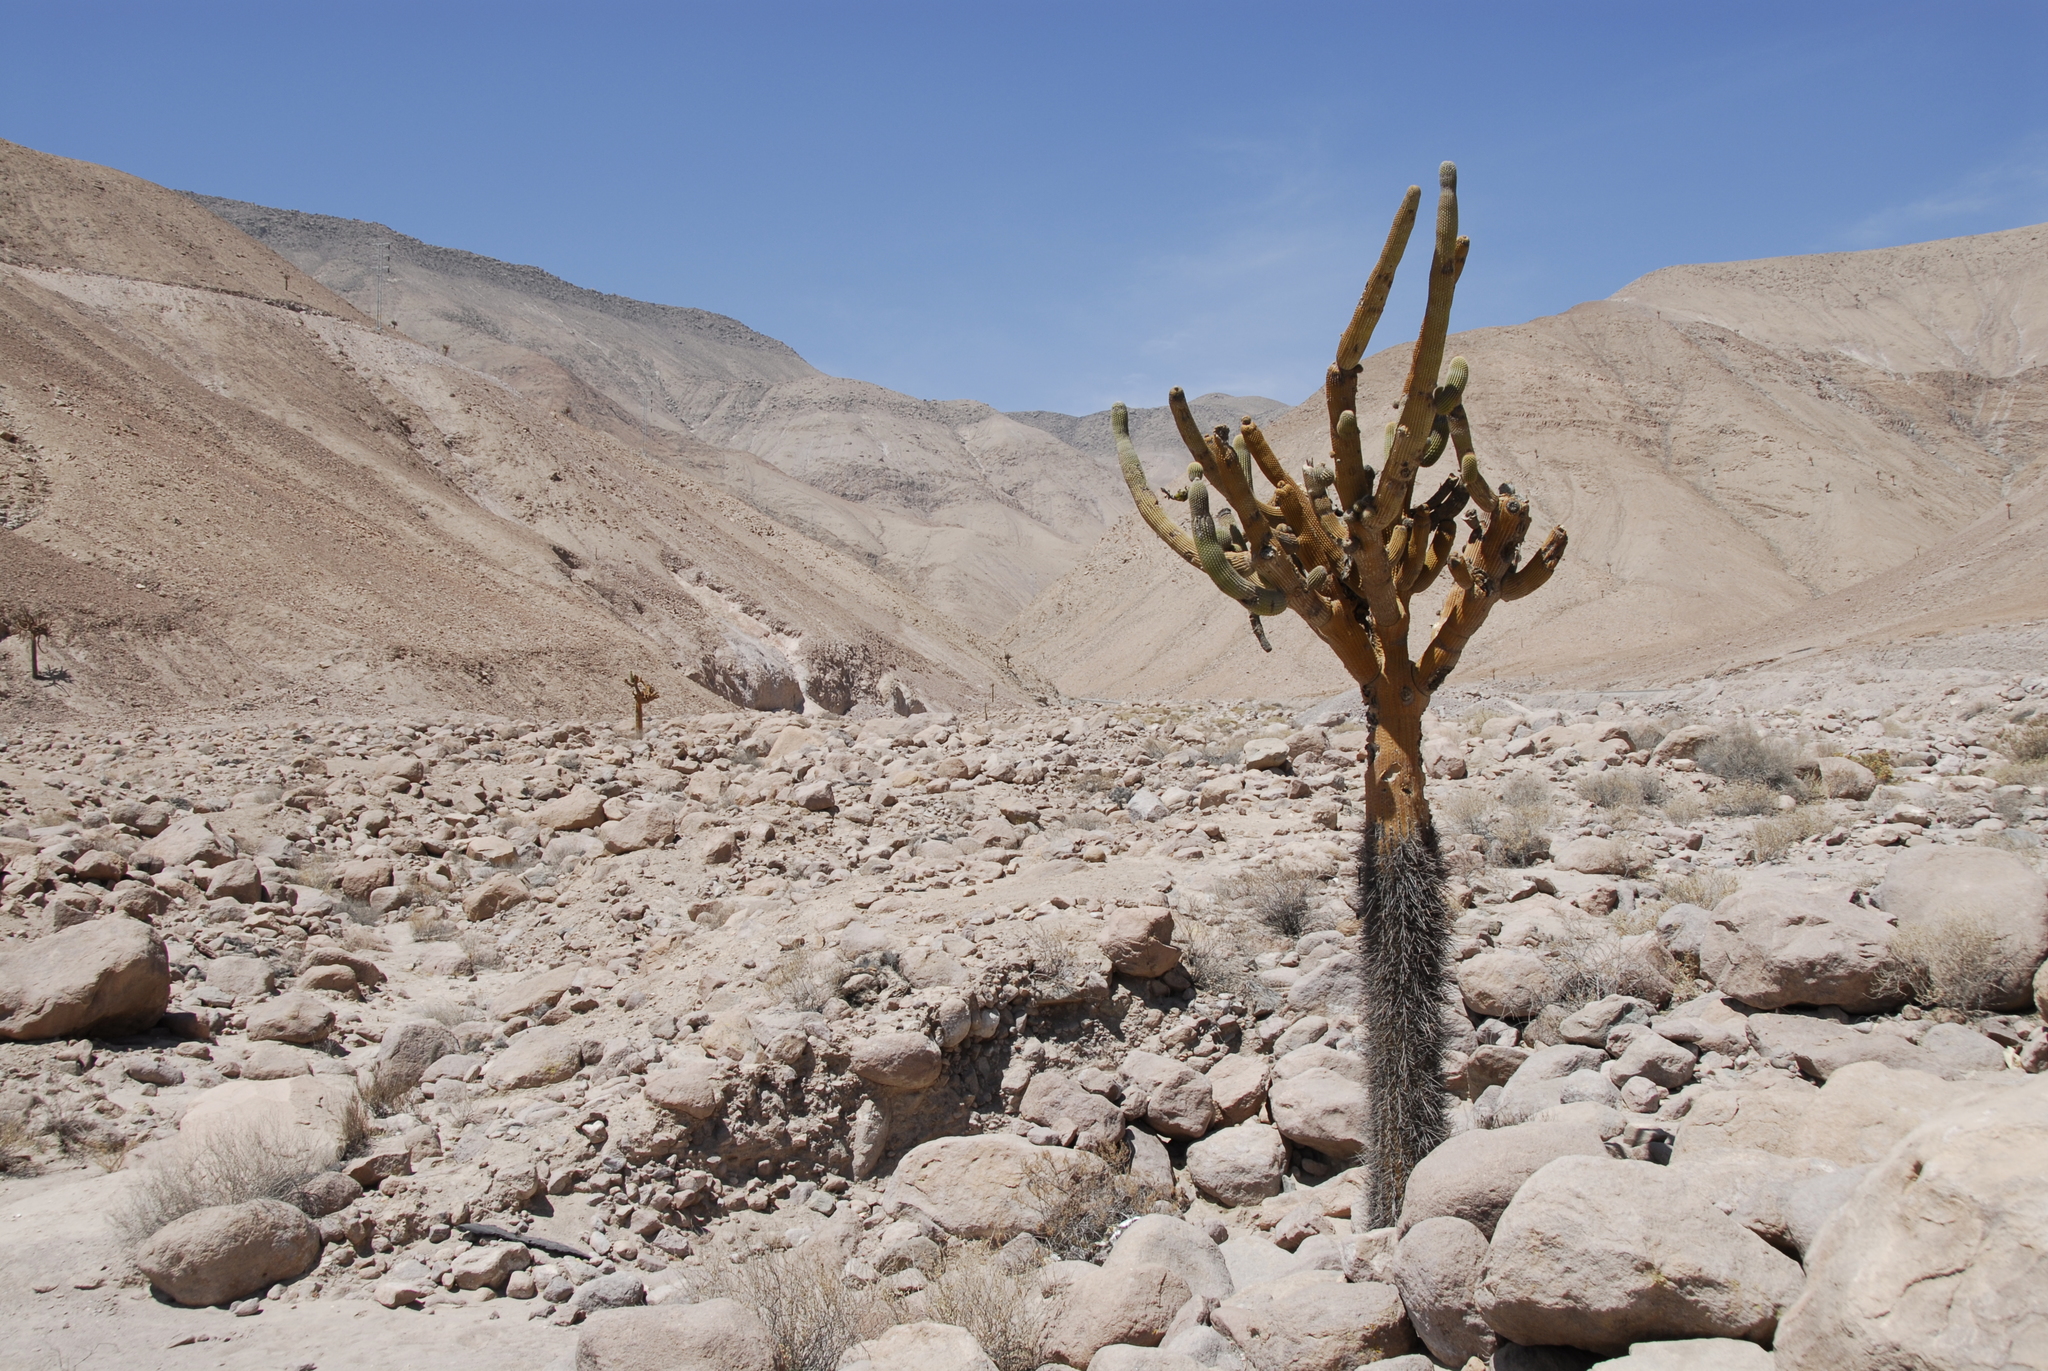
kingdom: Plantae
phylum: Tracheophyta
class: Magnoliopsida
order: Caryophyllales
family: Cactaceae
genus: Browningia
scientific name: Browningia candelaris
